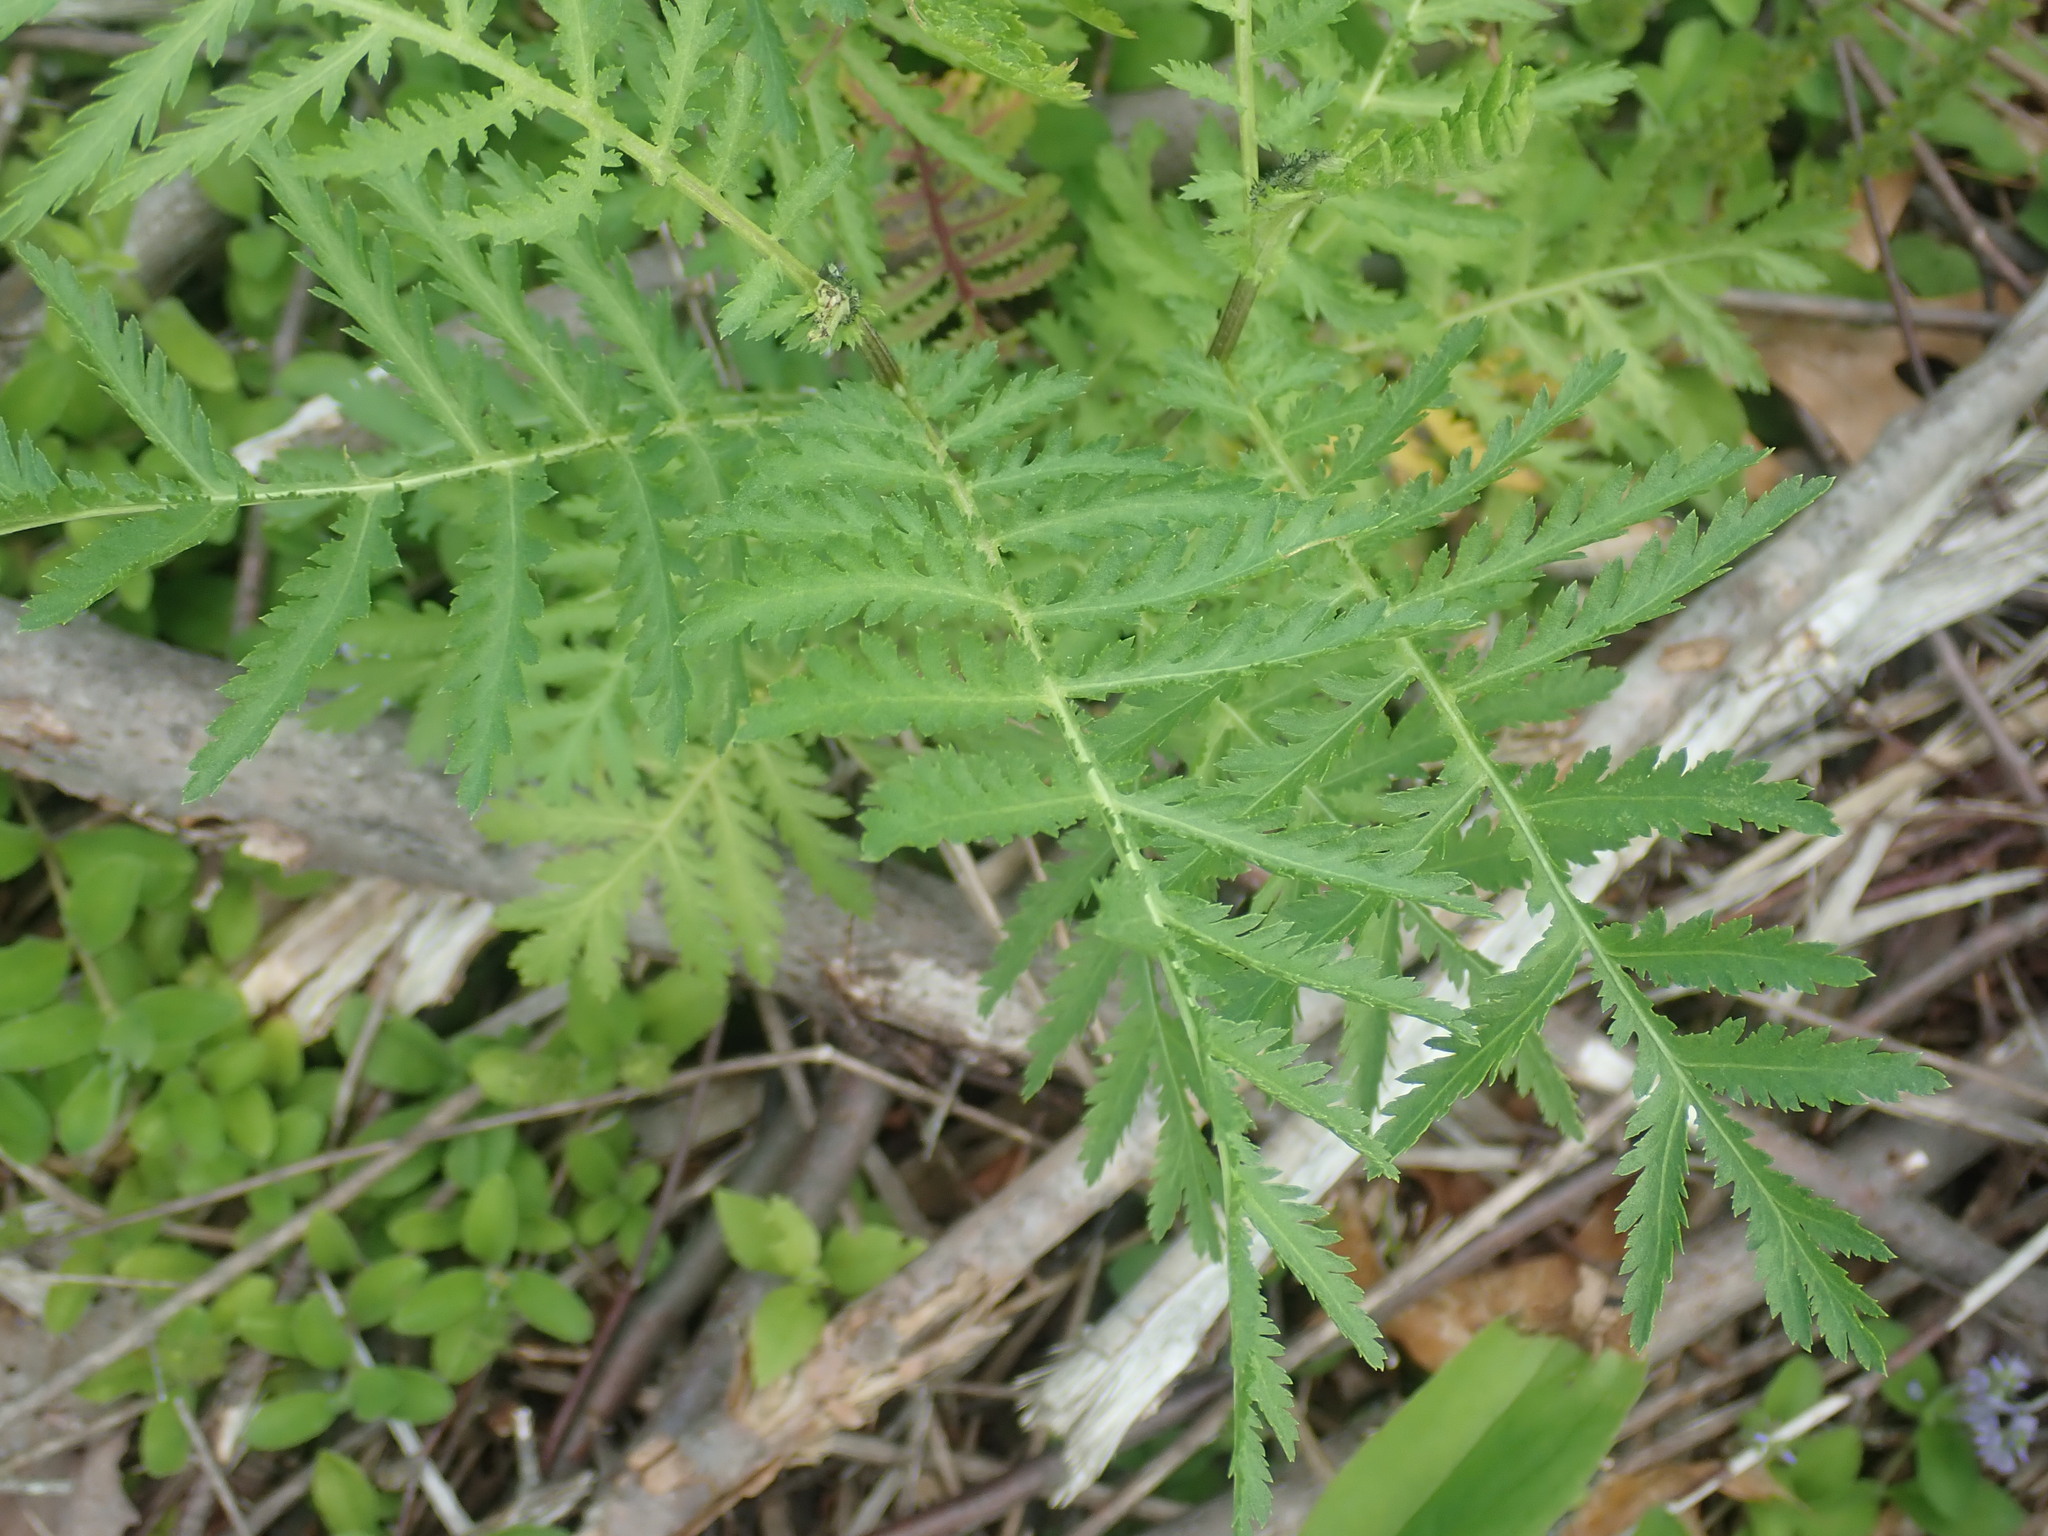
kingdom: Plantae
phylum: Tracheophyta
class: Magnoliopsida
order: Asterales
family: Asteraceae
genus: Tanacetum
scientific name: Tanacetum vulgare
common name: Common tansy
